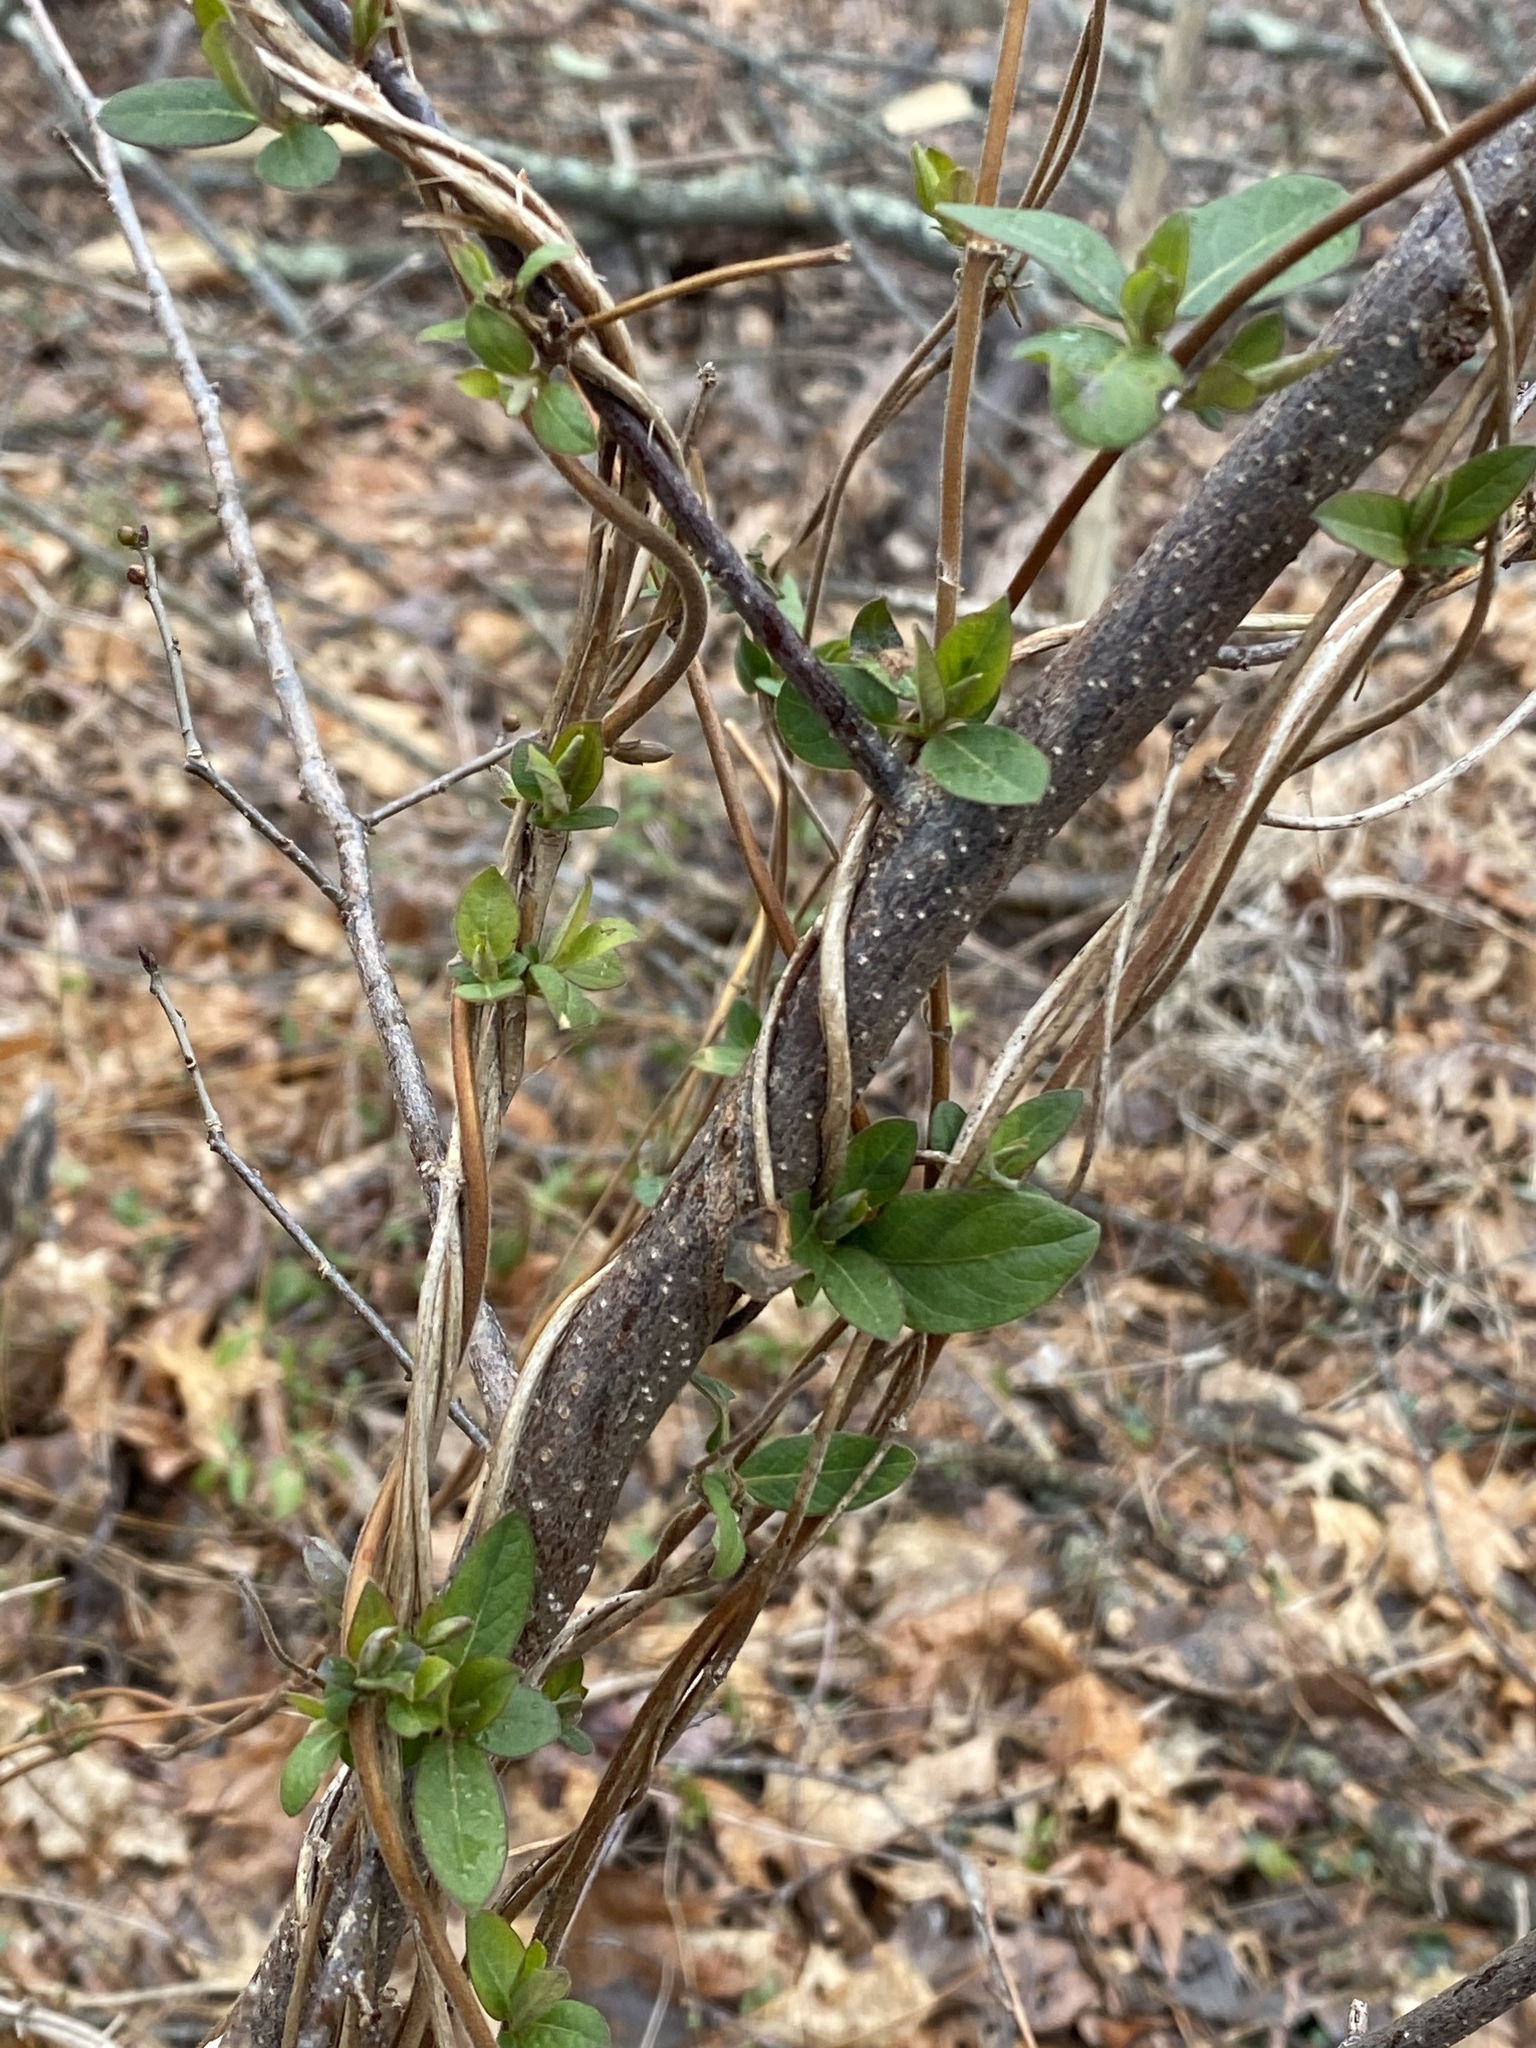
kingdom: Plantae
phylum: Tracheophyta
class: Magnoliopsida
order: Dipsacales
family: Caprifoliaceae
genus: Lonicera
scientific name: Lonicera japonica
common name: Japanese honeysuckle
